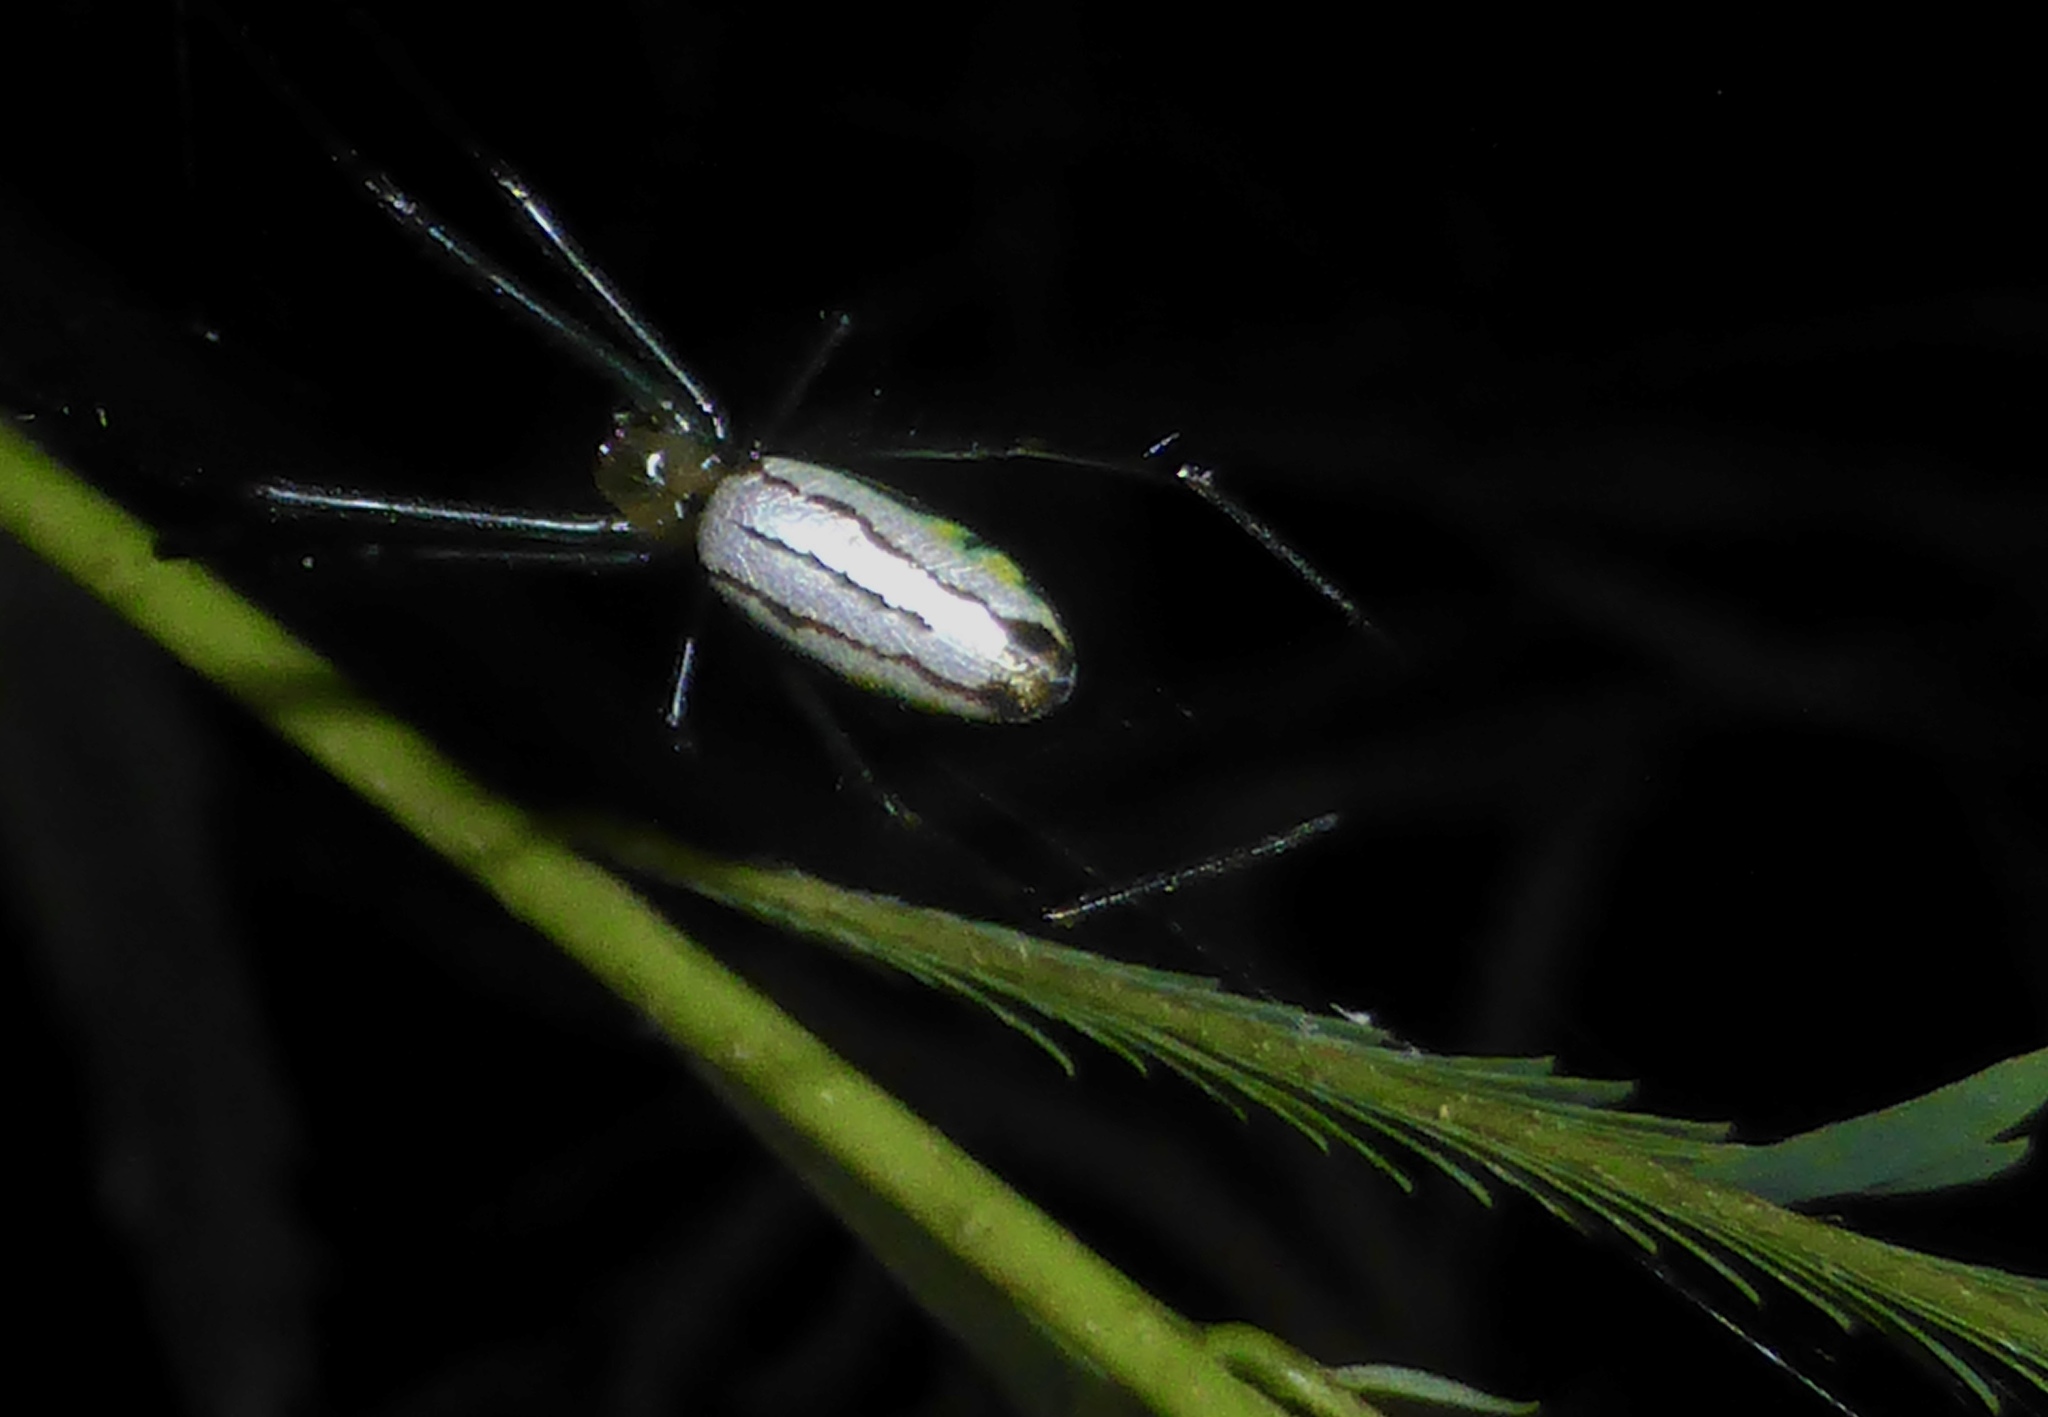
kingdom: Animalia
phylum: Arthropoda
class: Arachnida
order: Araneae
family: Tetragnathidae
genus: Leucauge
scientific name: Leucauge celebesiana
